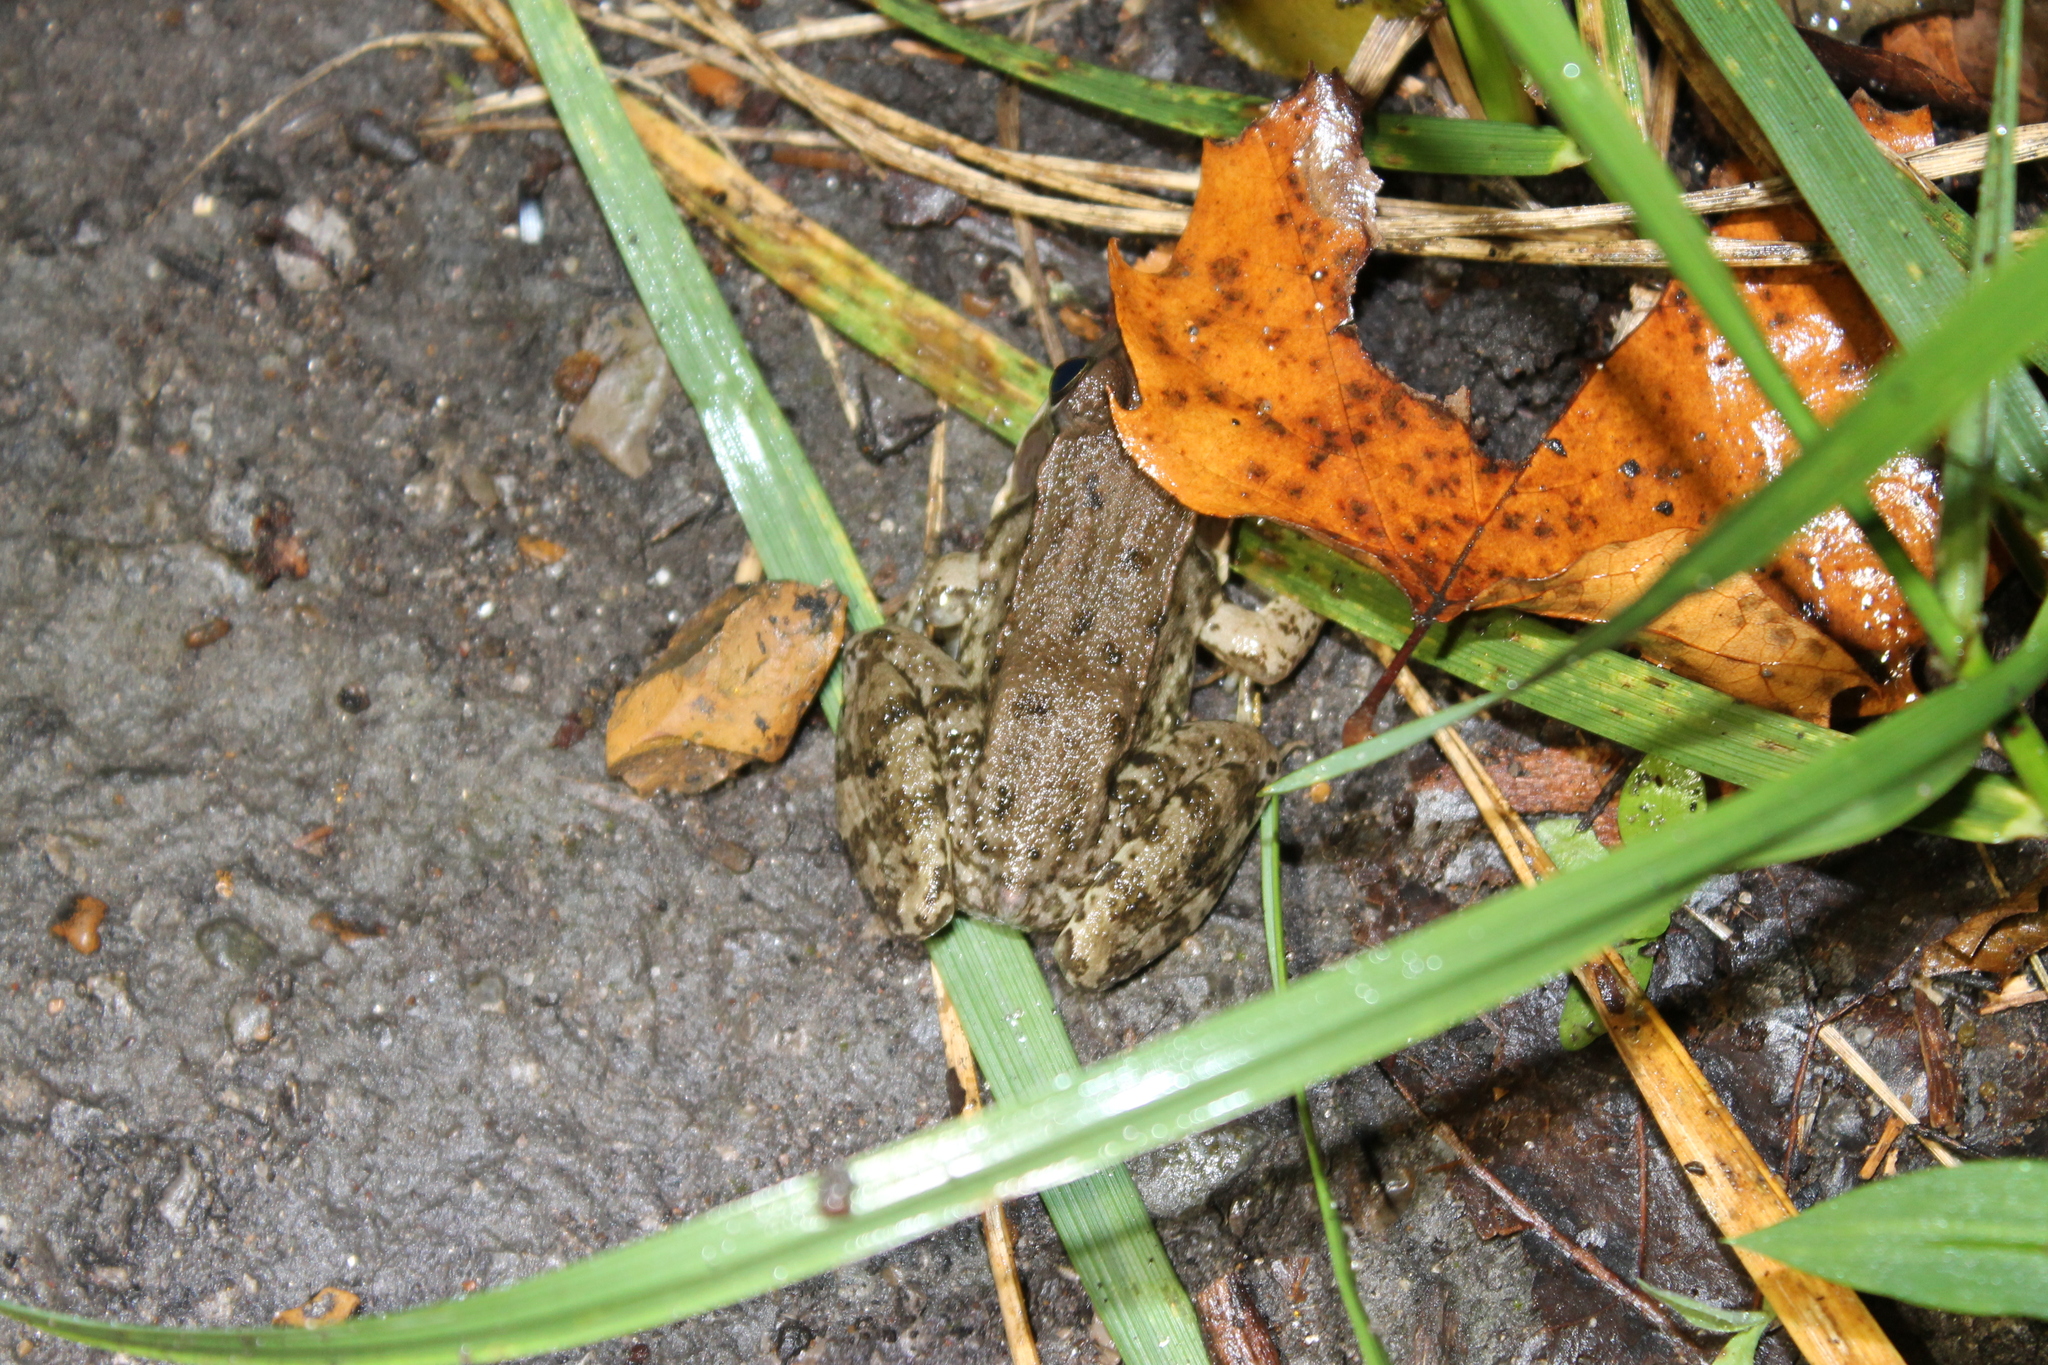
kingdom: Animalia
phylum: Chordata
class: Amphibia
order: Anura
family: Ranidae
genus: Lithobates
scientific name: Lithobates clamitans
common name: Green frog
